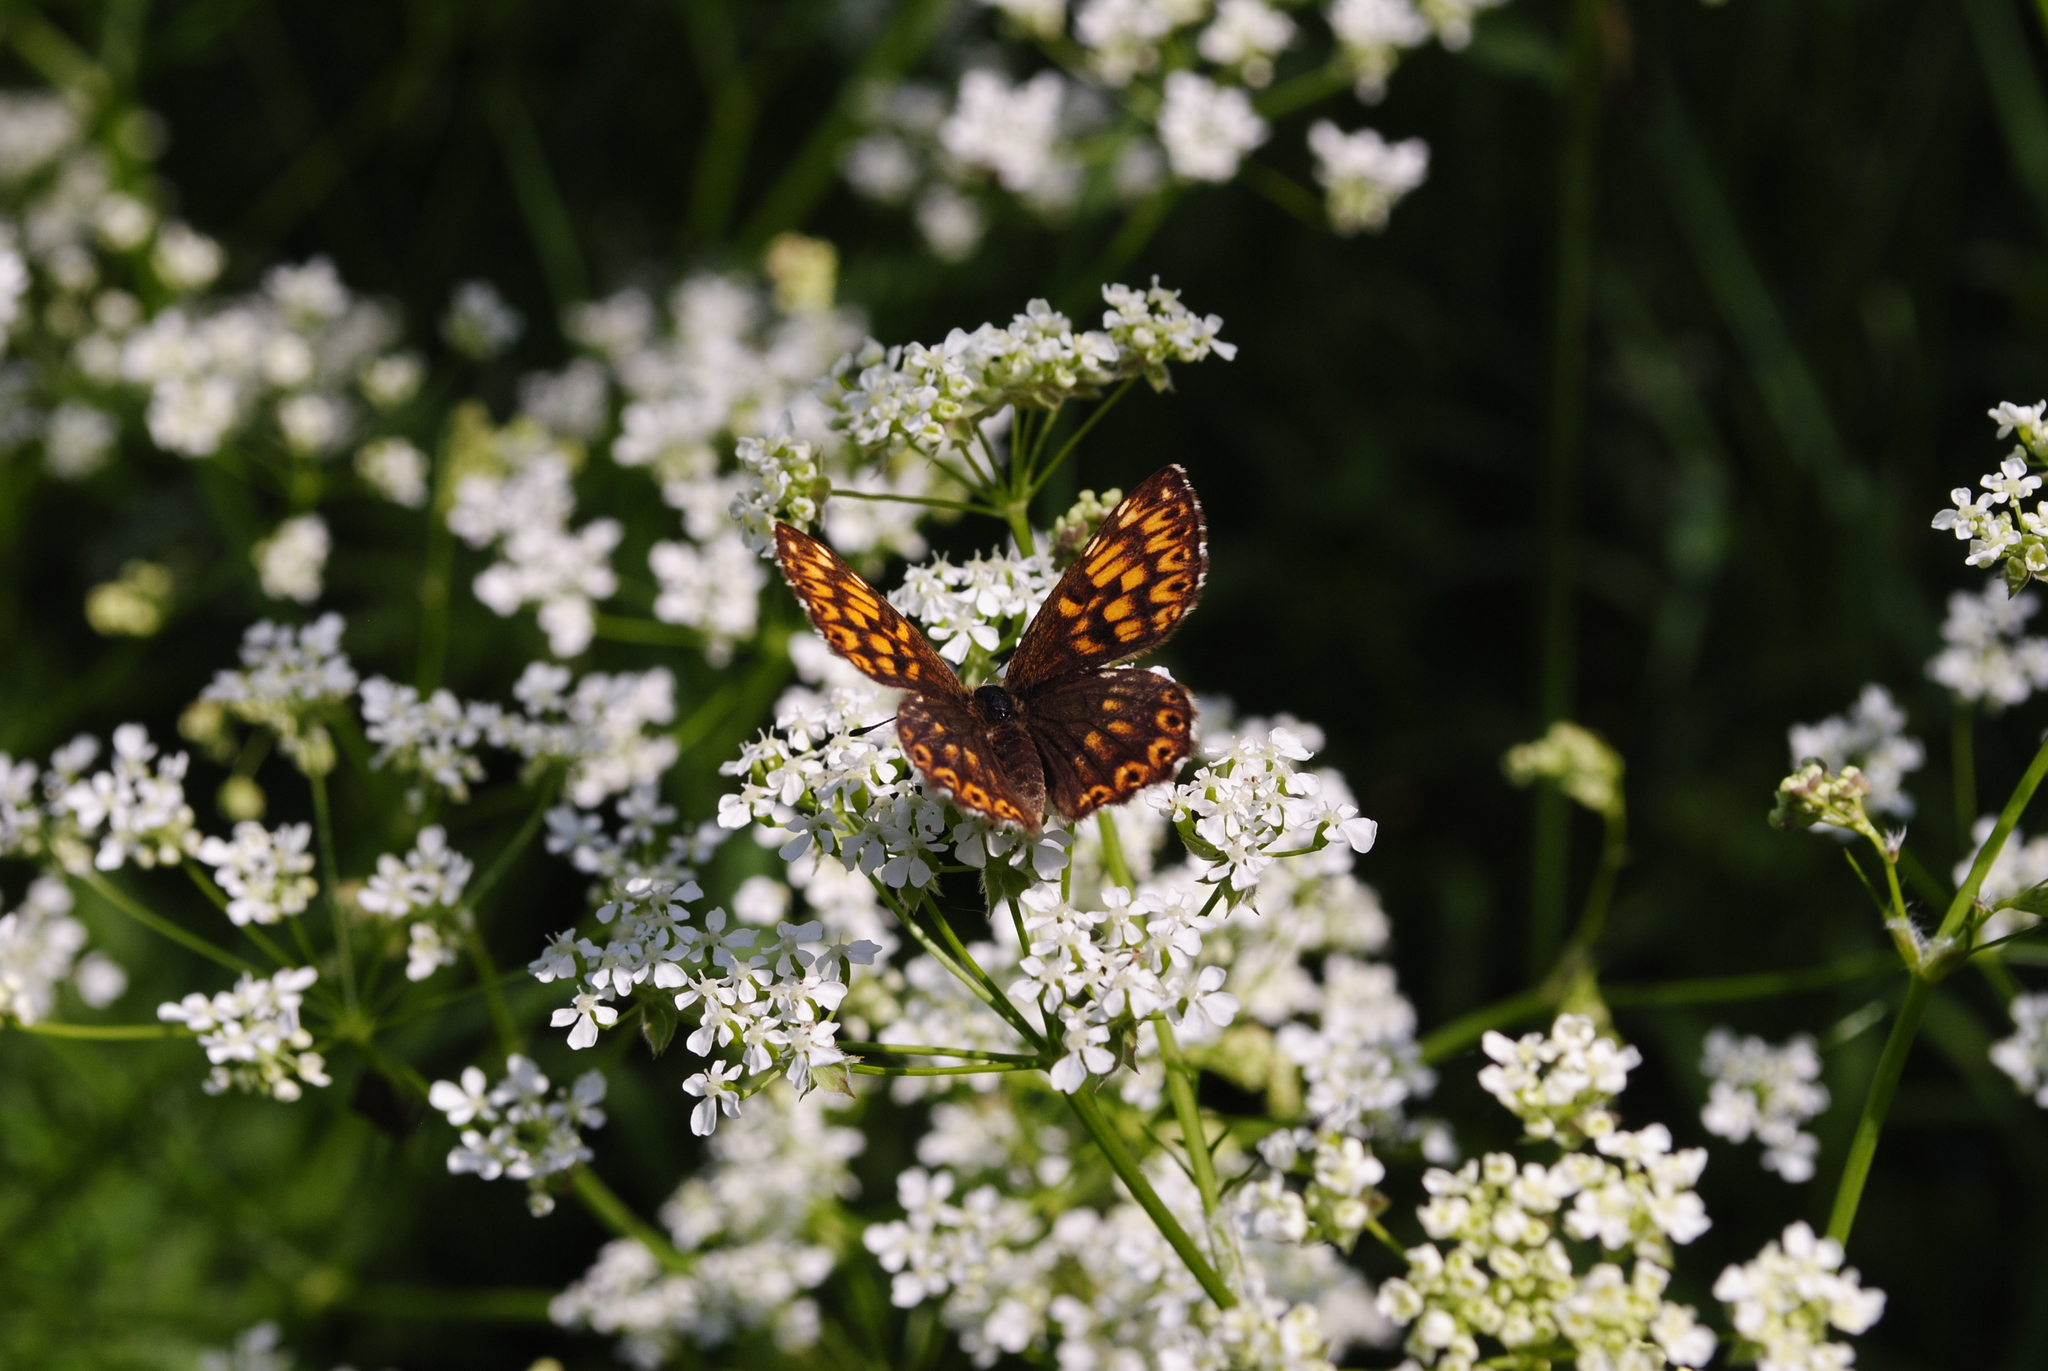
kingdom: Animalia
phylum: Arthropoda
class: Insecta
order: Lepidoptera
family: Riodinidae
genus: Hamearis
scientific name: Hamearis lucina
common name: Duke of burgundy fritillary
